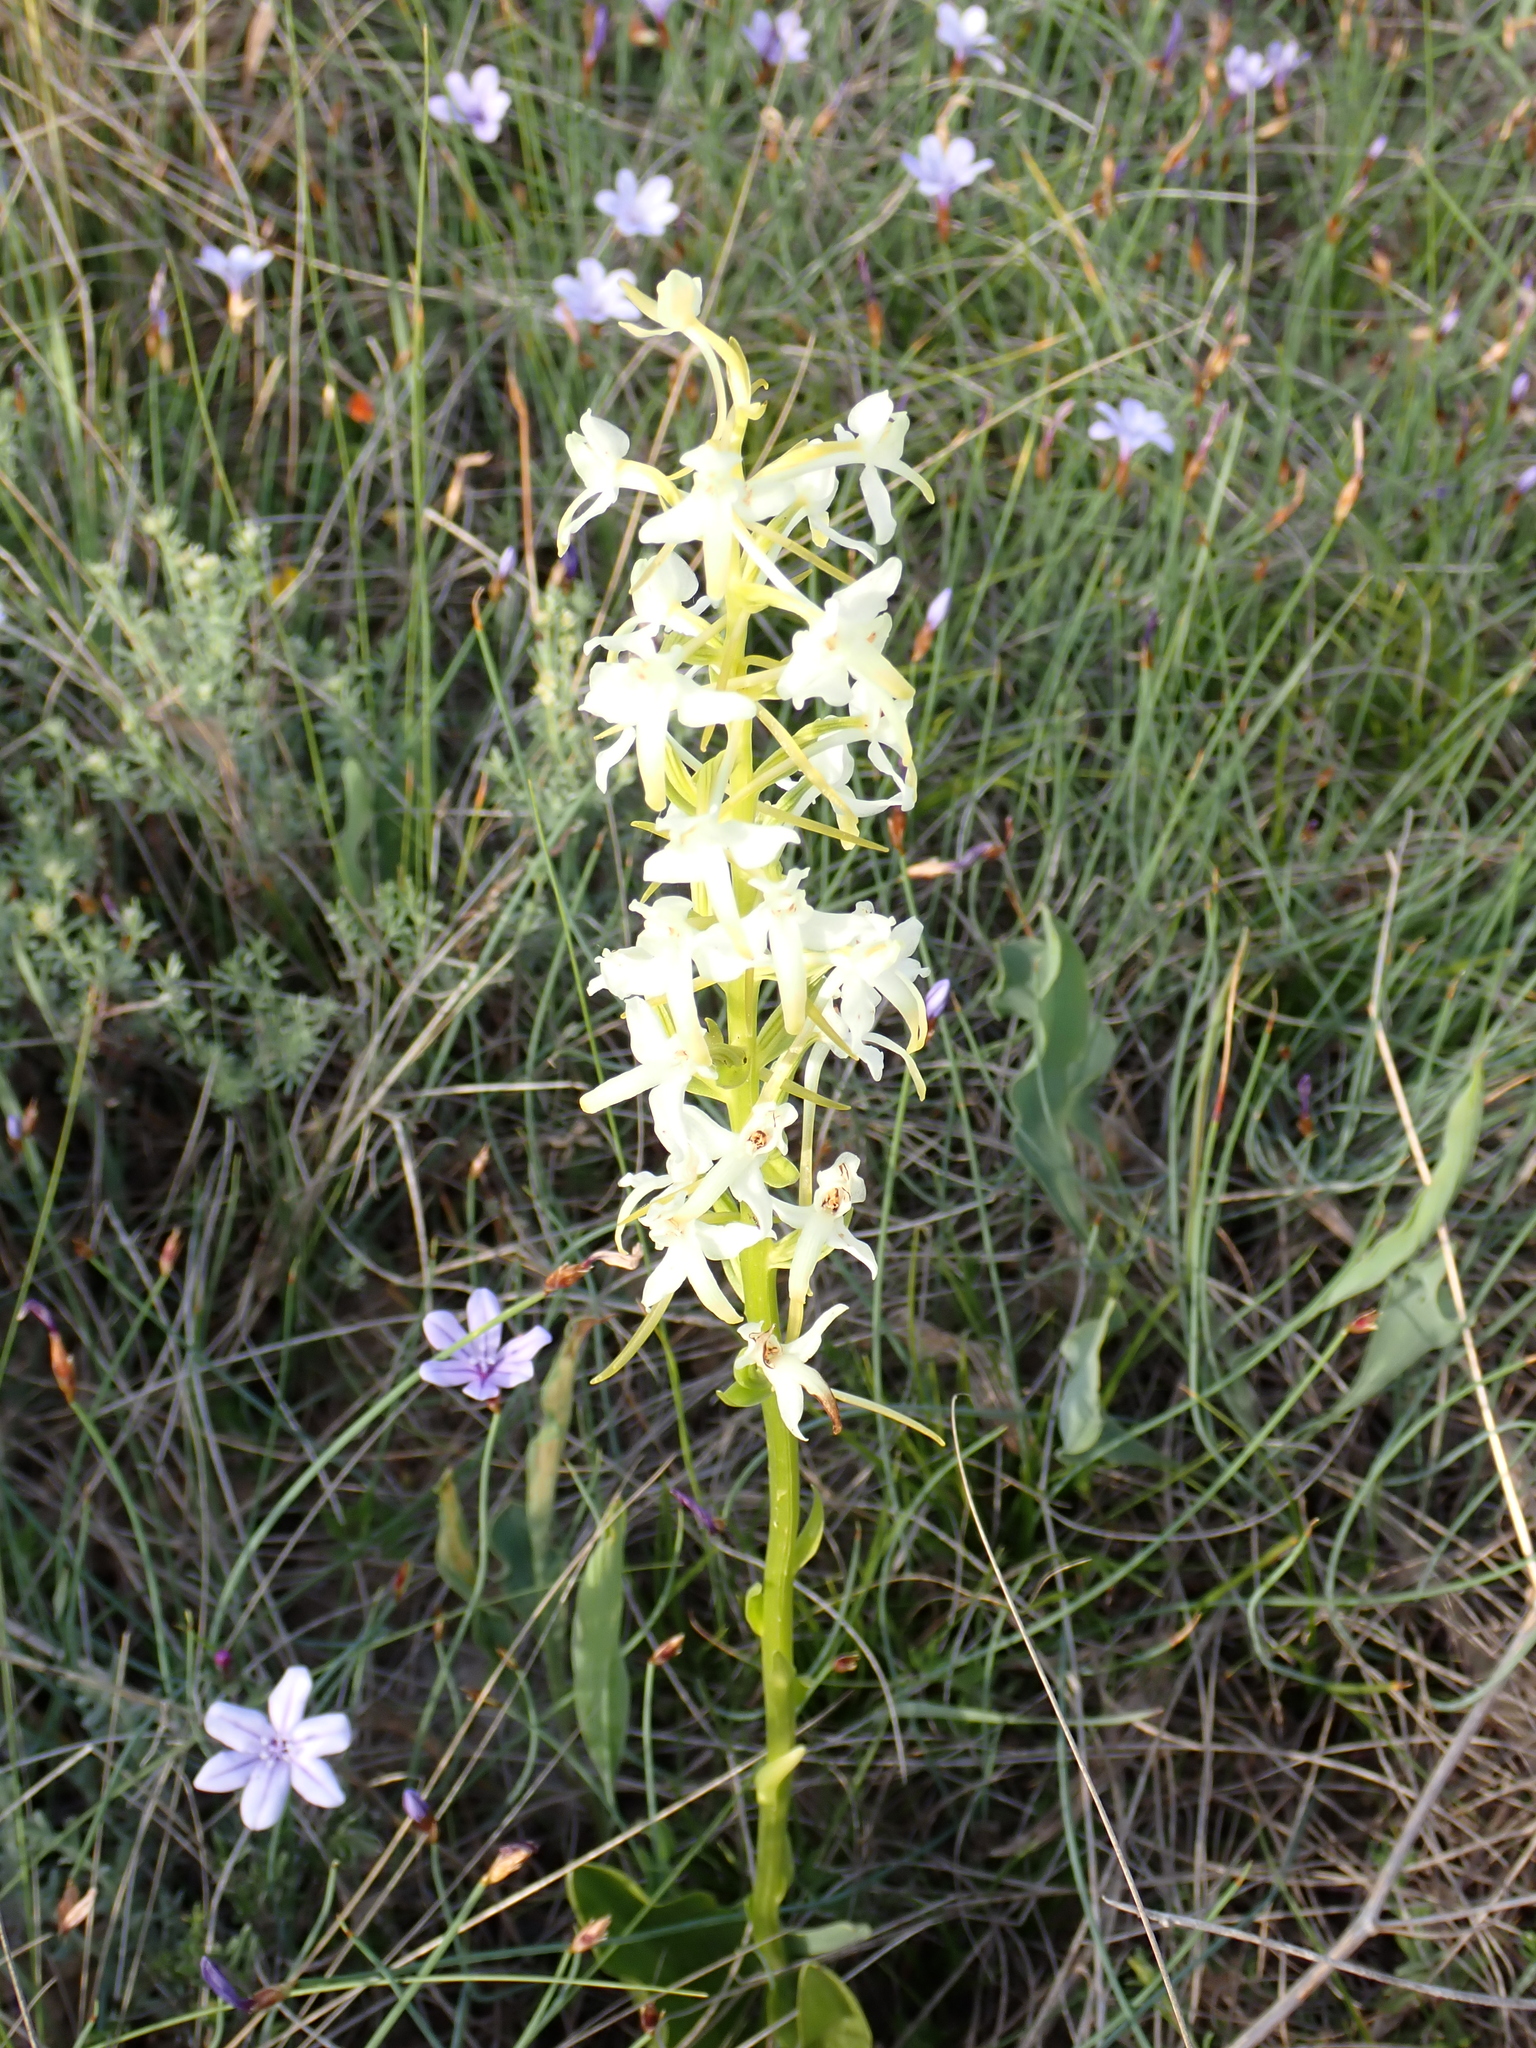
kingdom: Plantae
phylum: Tracheophyta
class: Liliopsida
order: Asparagales
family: Orchidaceae
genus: Platanthera
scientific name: Platanthera bifolia
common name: Lesser butterfly-orchid
